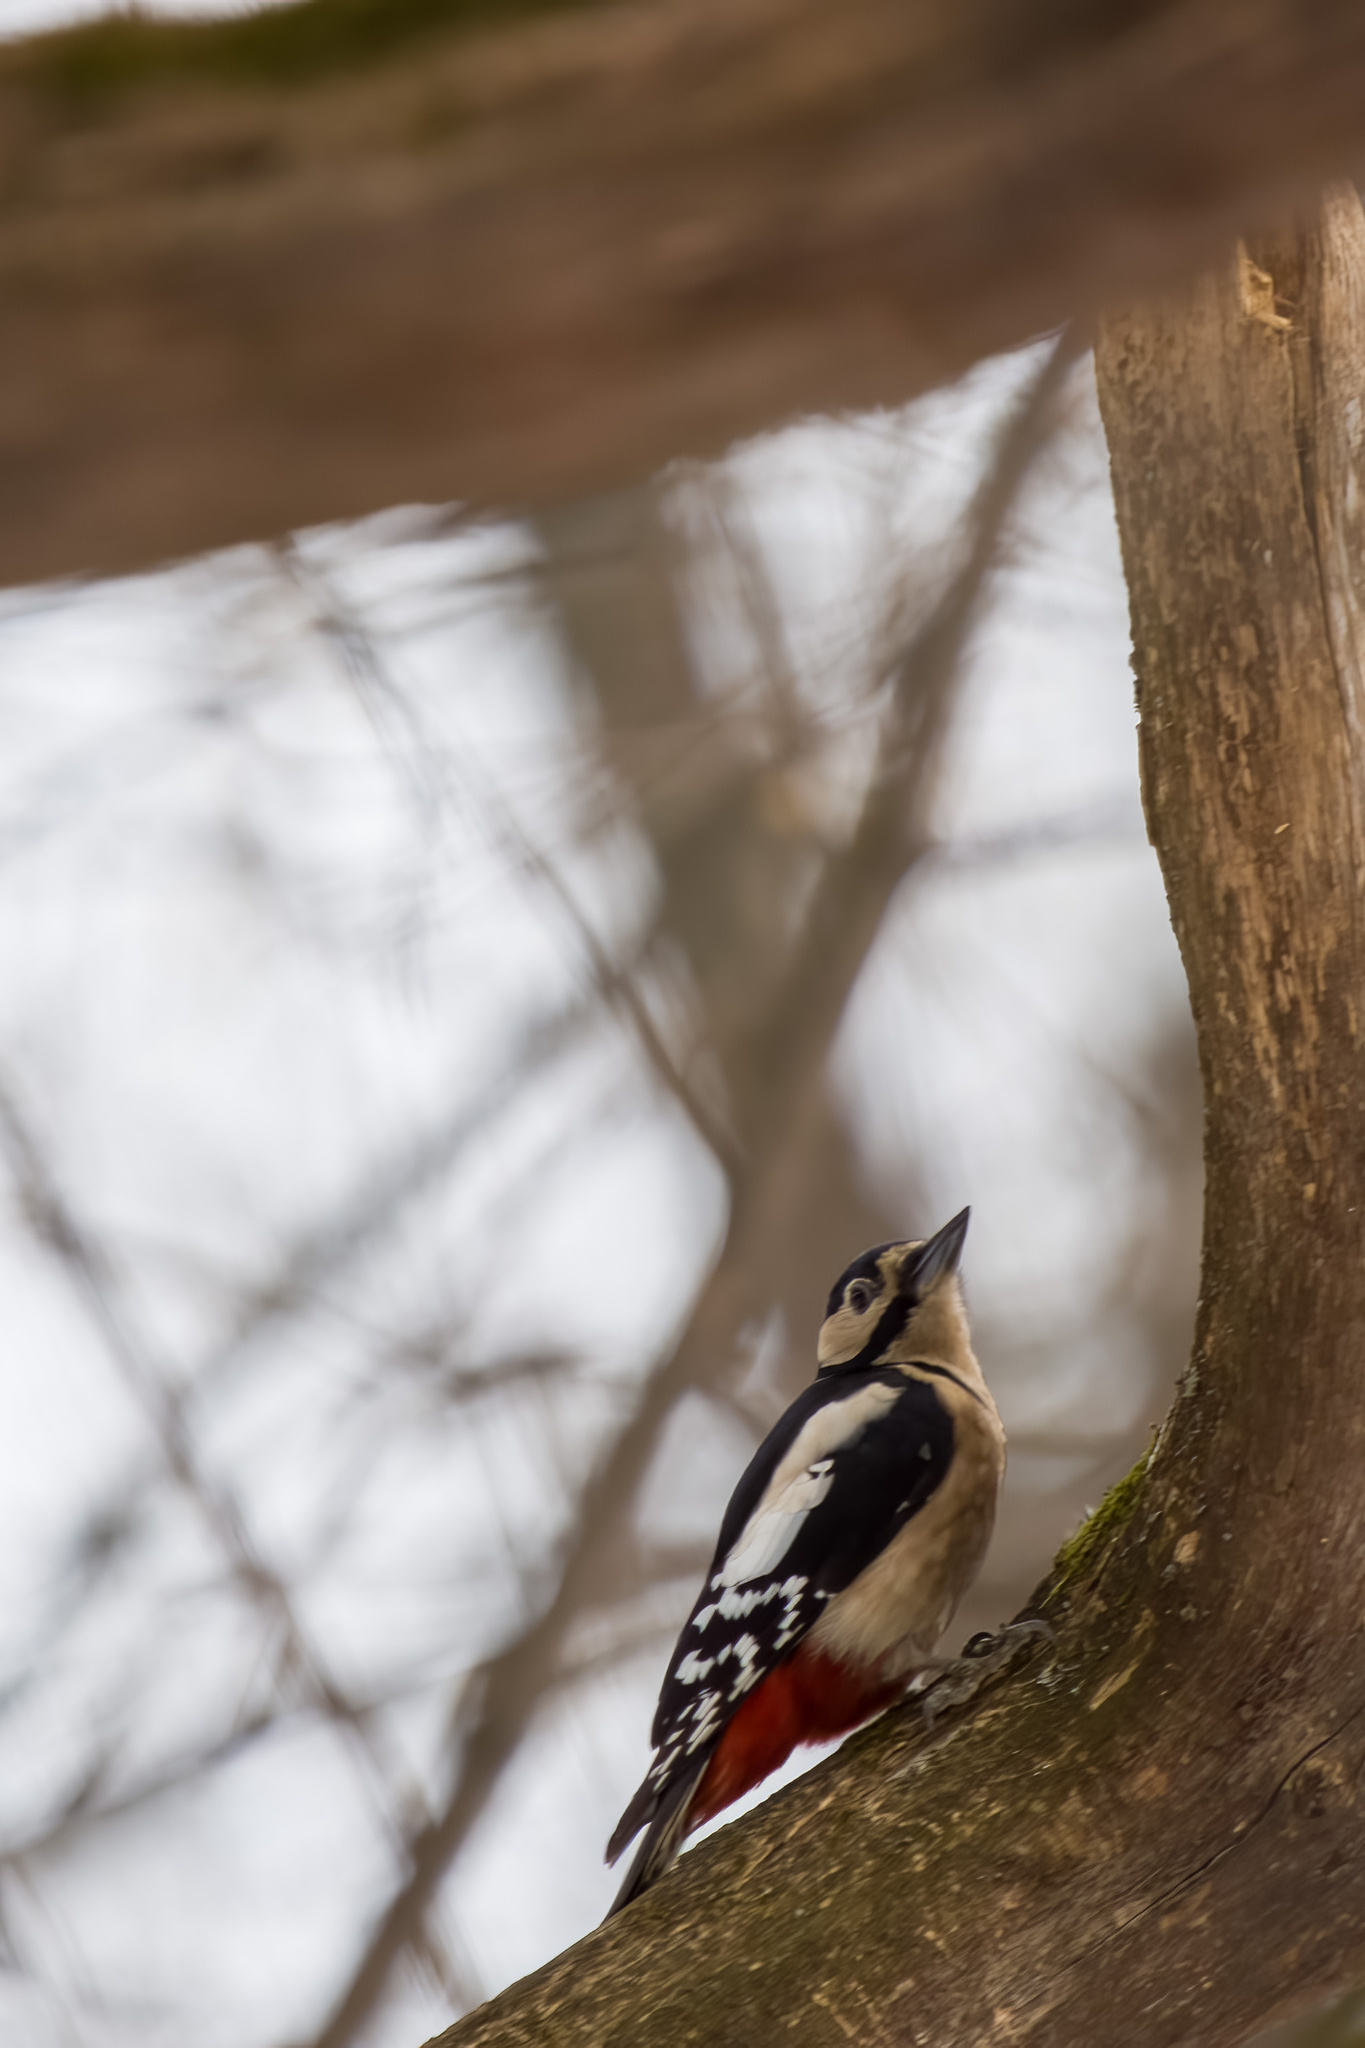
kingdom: Animalia
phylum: Chordata
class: Aves
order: Piciformes
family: Picidae
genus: Dendrocopos
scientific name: Dendrocopos major
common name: Great spotted woodpecker
